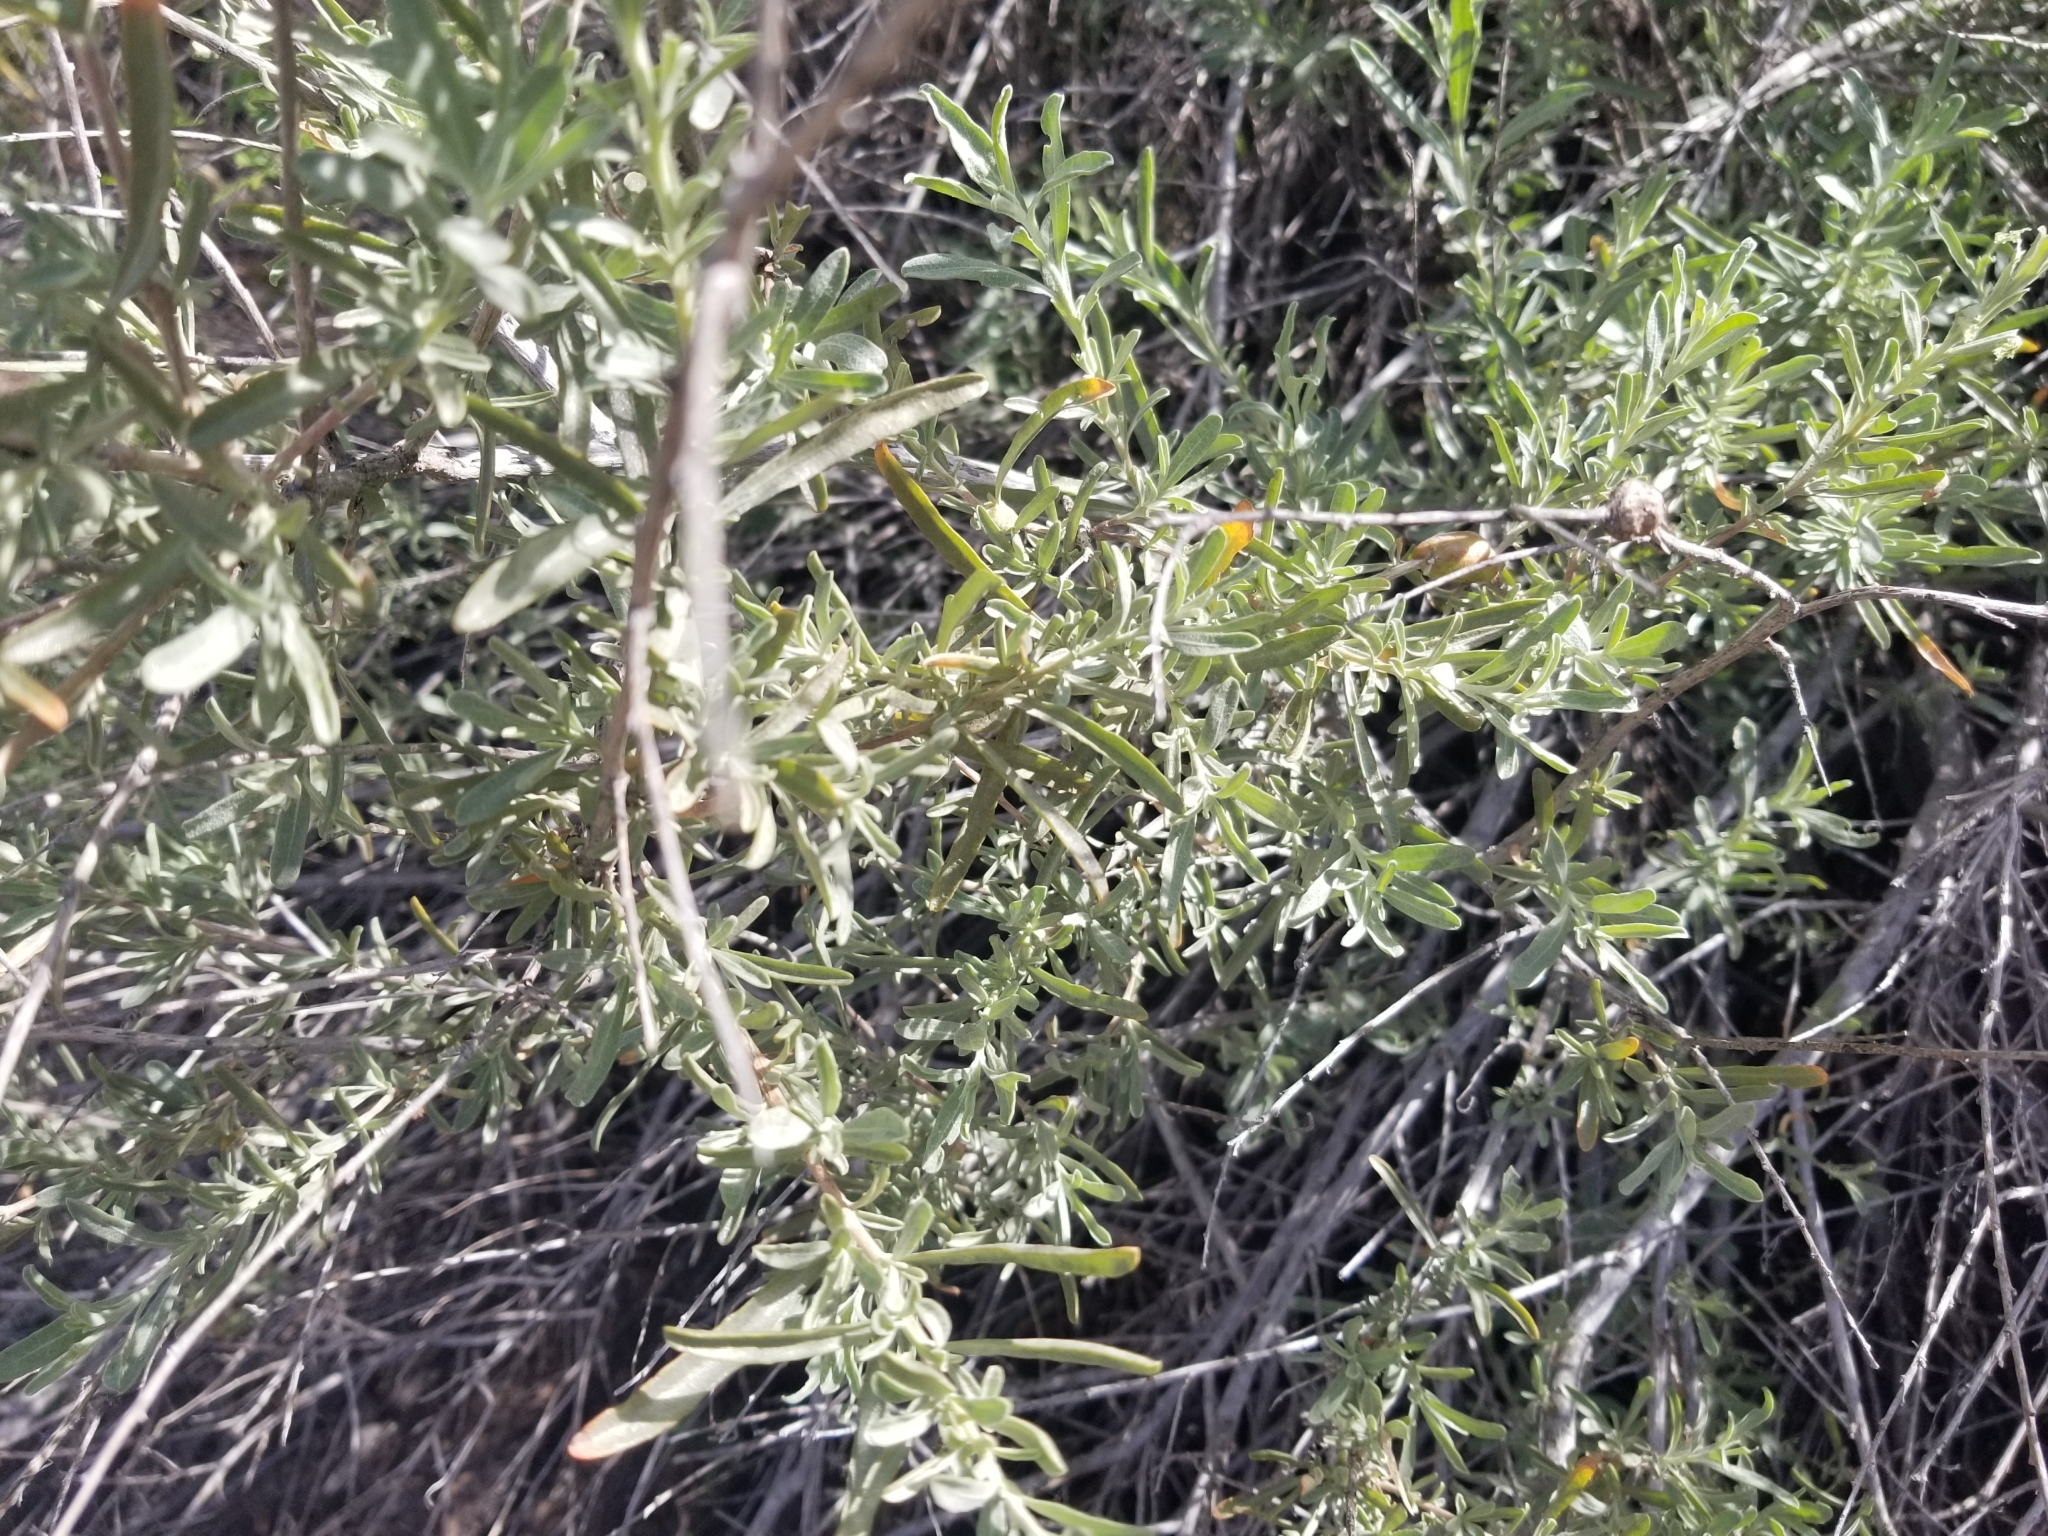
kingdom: Plantae
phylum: Tracheophyta
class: Magnoliopsida
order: Caryophyllales
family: Amaranthaceae
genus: Atriplex
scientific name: Atriplex canescens
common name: Four-wing saltbush
